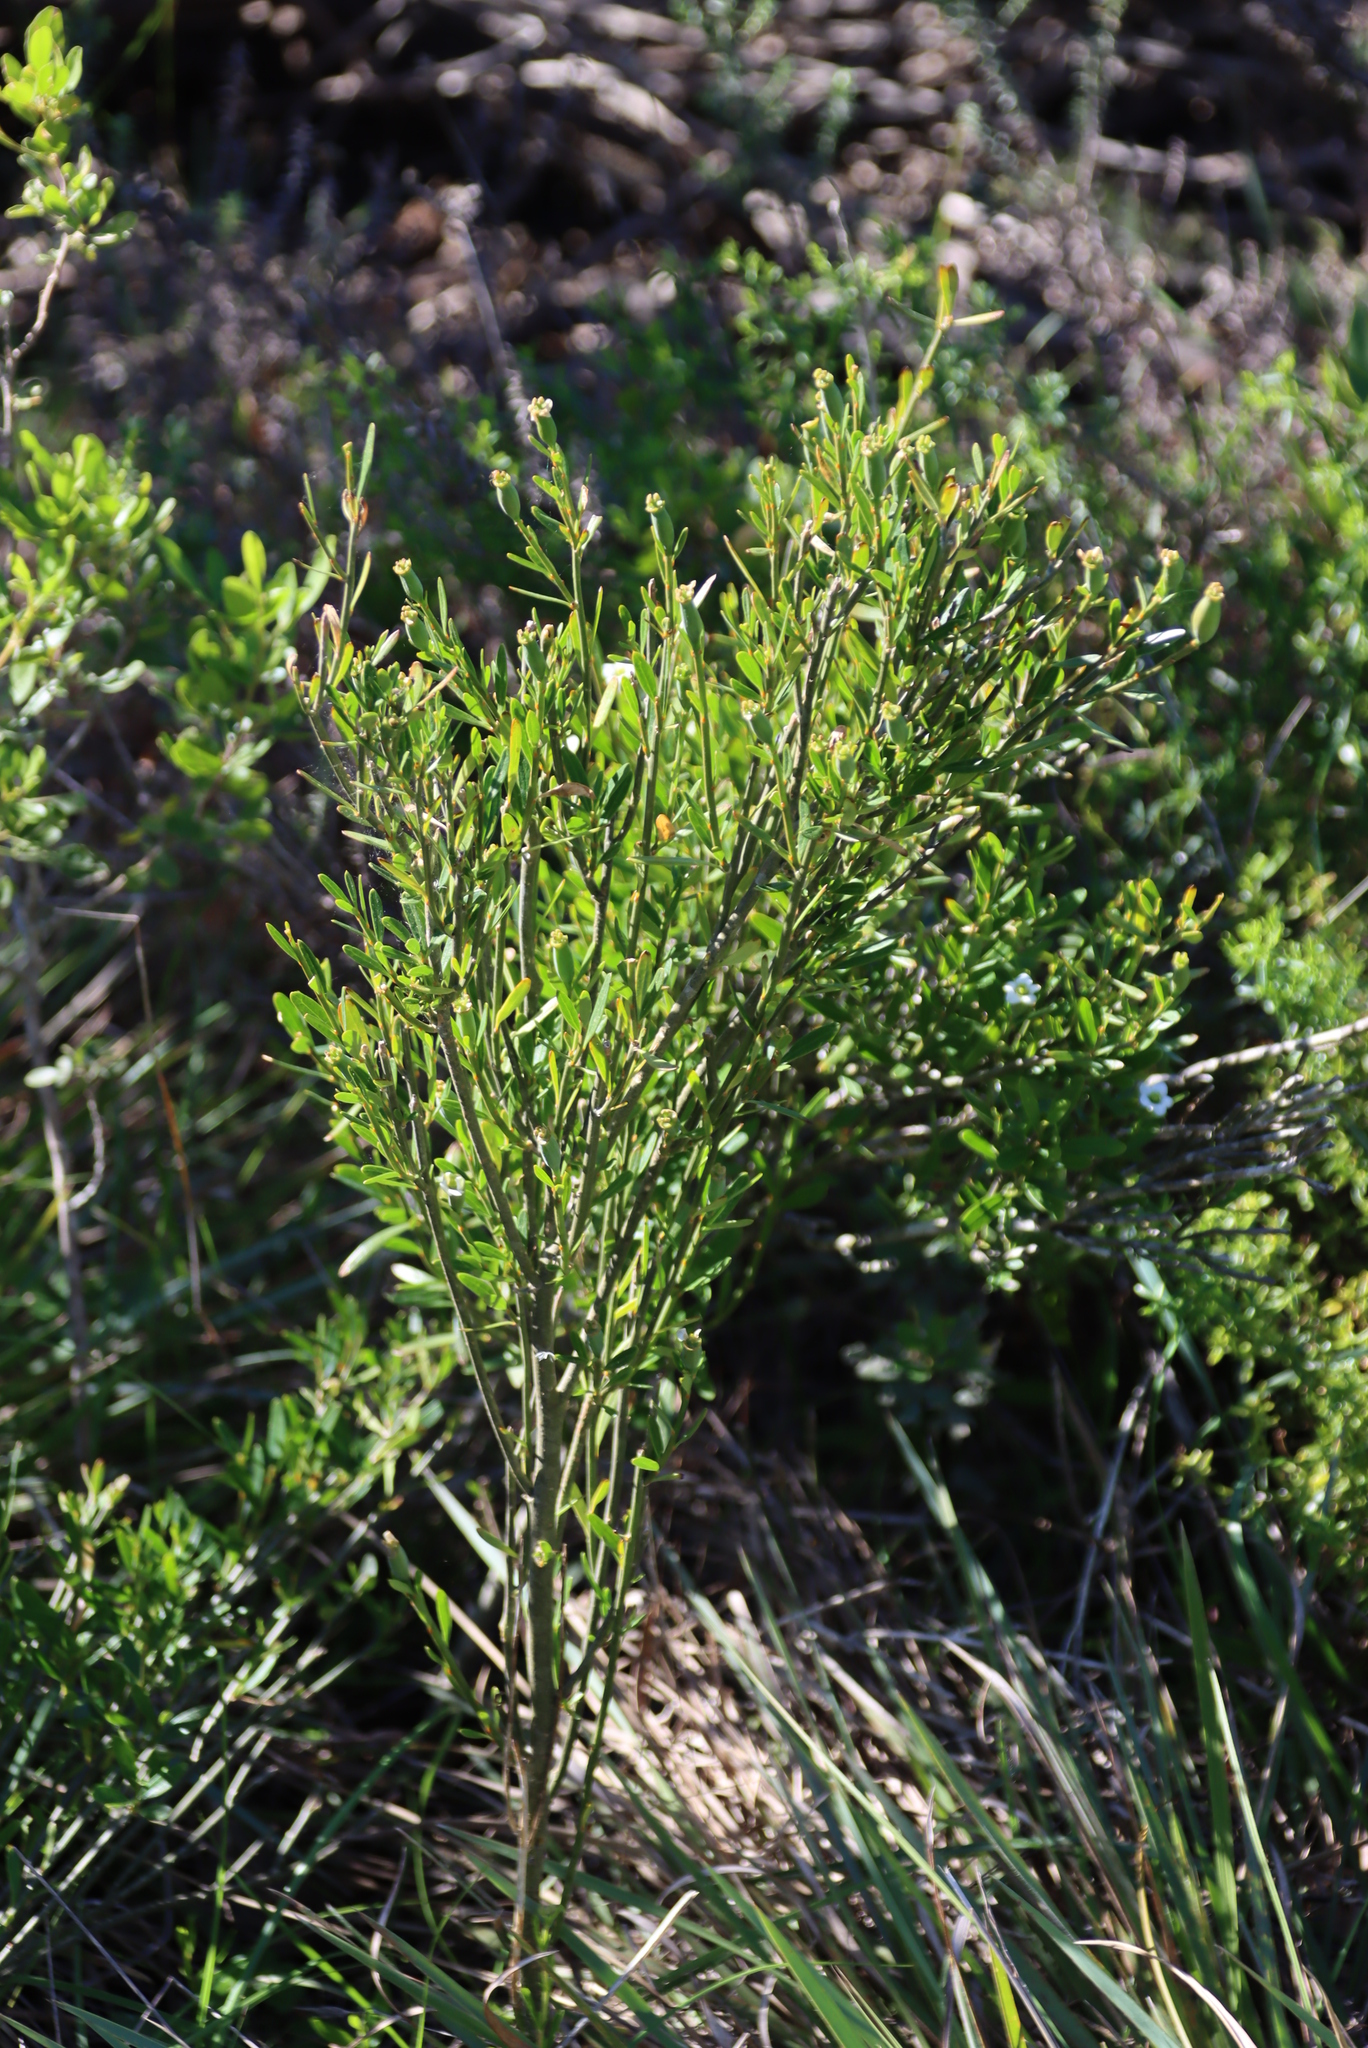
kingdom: Plantae
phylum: Tracheophyta
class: Magnoliopsida
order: Solanales
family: Montiniaceae
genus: Montinia
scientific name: Montinia caryophyllacea
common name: Wild clove-bush
